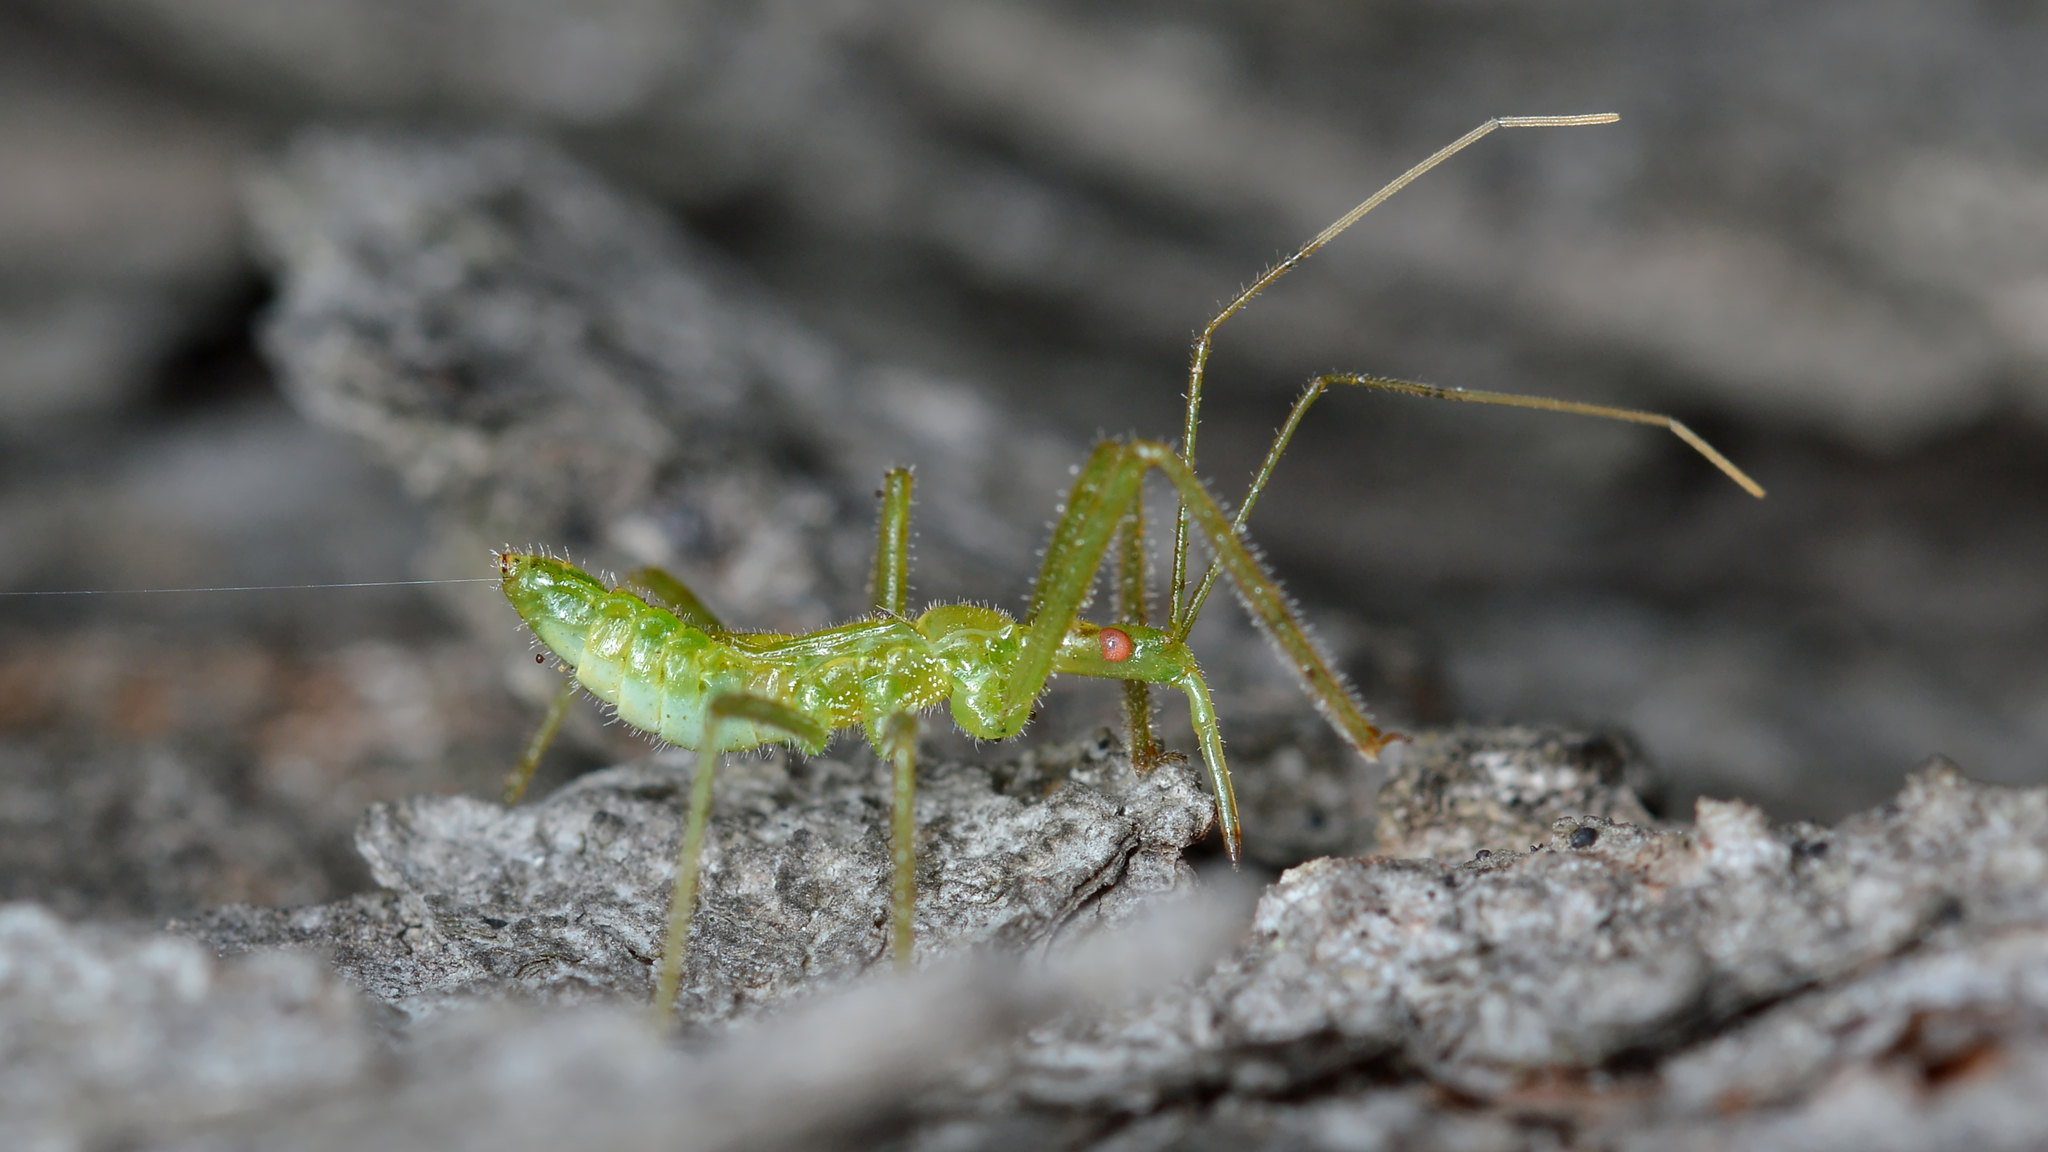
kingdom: Animalia
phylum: Arthropoda
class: Insecta
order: Hemiptera
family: Reduviidae
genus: Zelus
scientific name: Zelus luridus
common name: Pale green assassin bug
